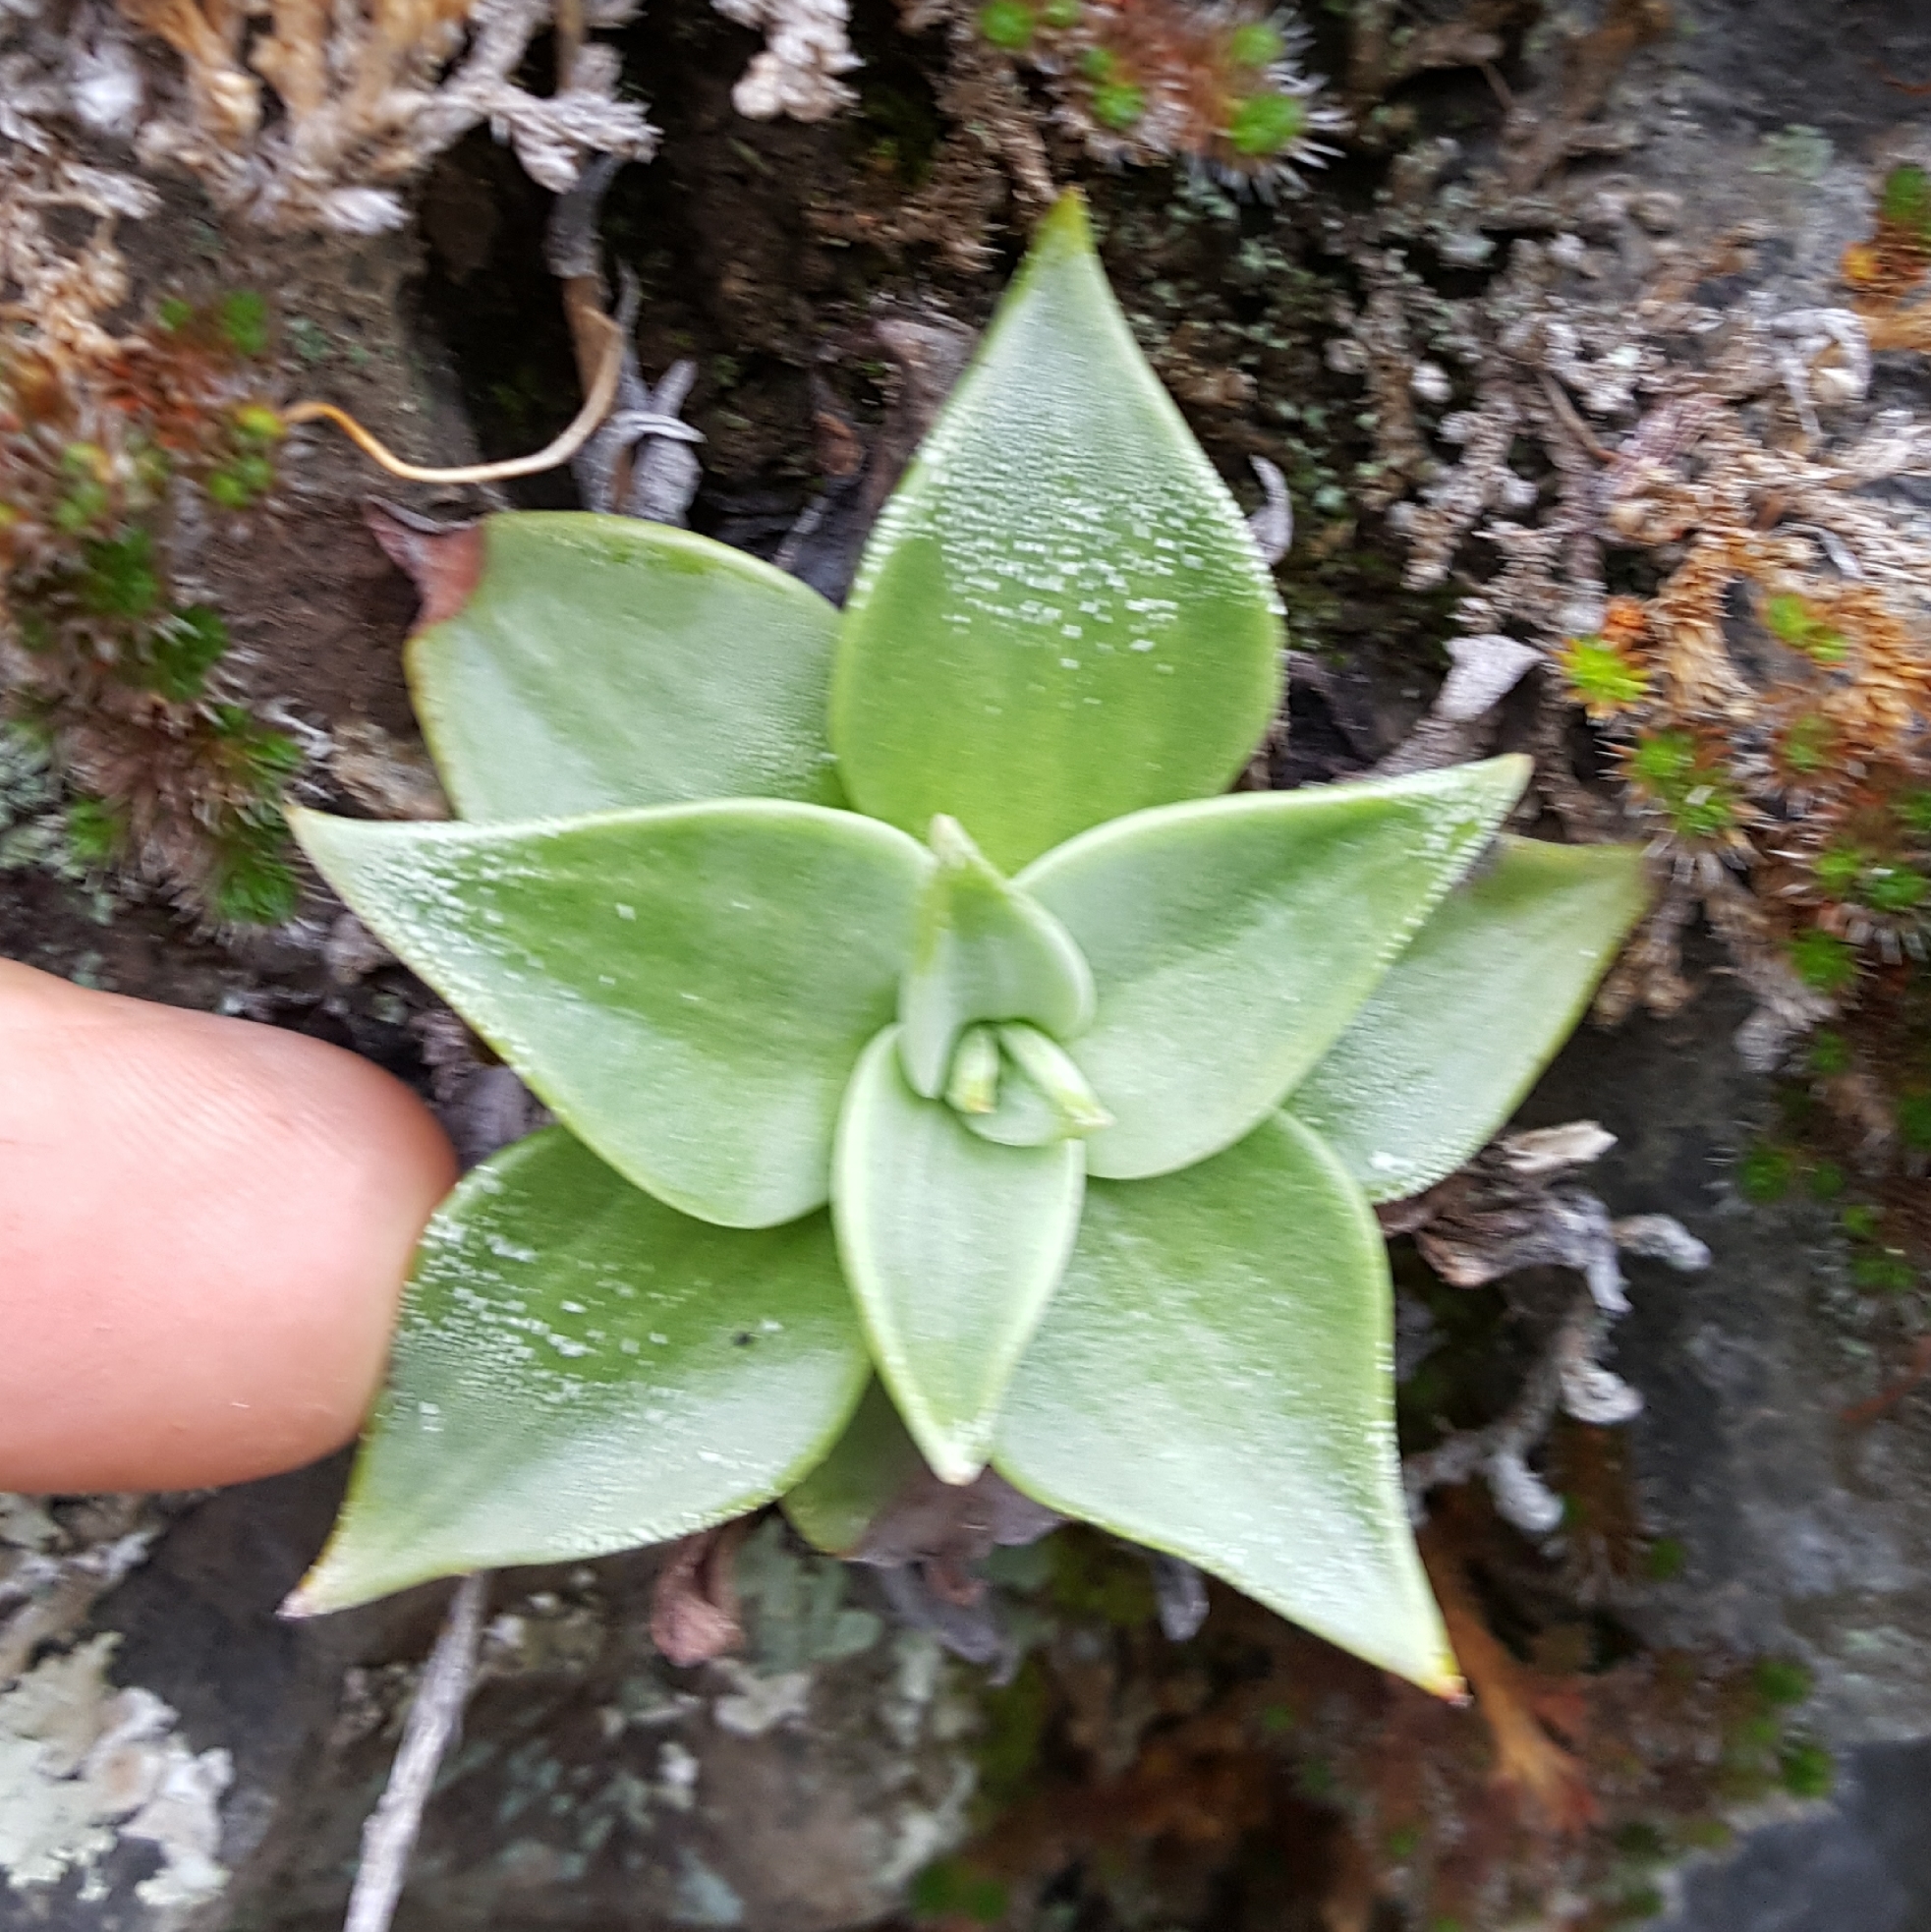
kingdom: Plantae
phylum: Tracheophyta
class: Magnoliopsida
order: Saxifragales
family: Crassulaceae
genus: Dudleya
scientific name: Dudleya cymosa
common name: Canyon dudleya
